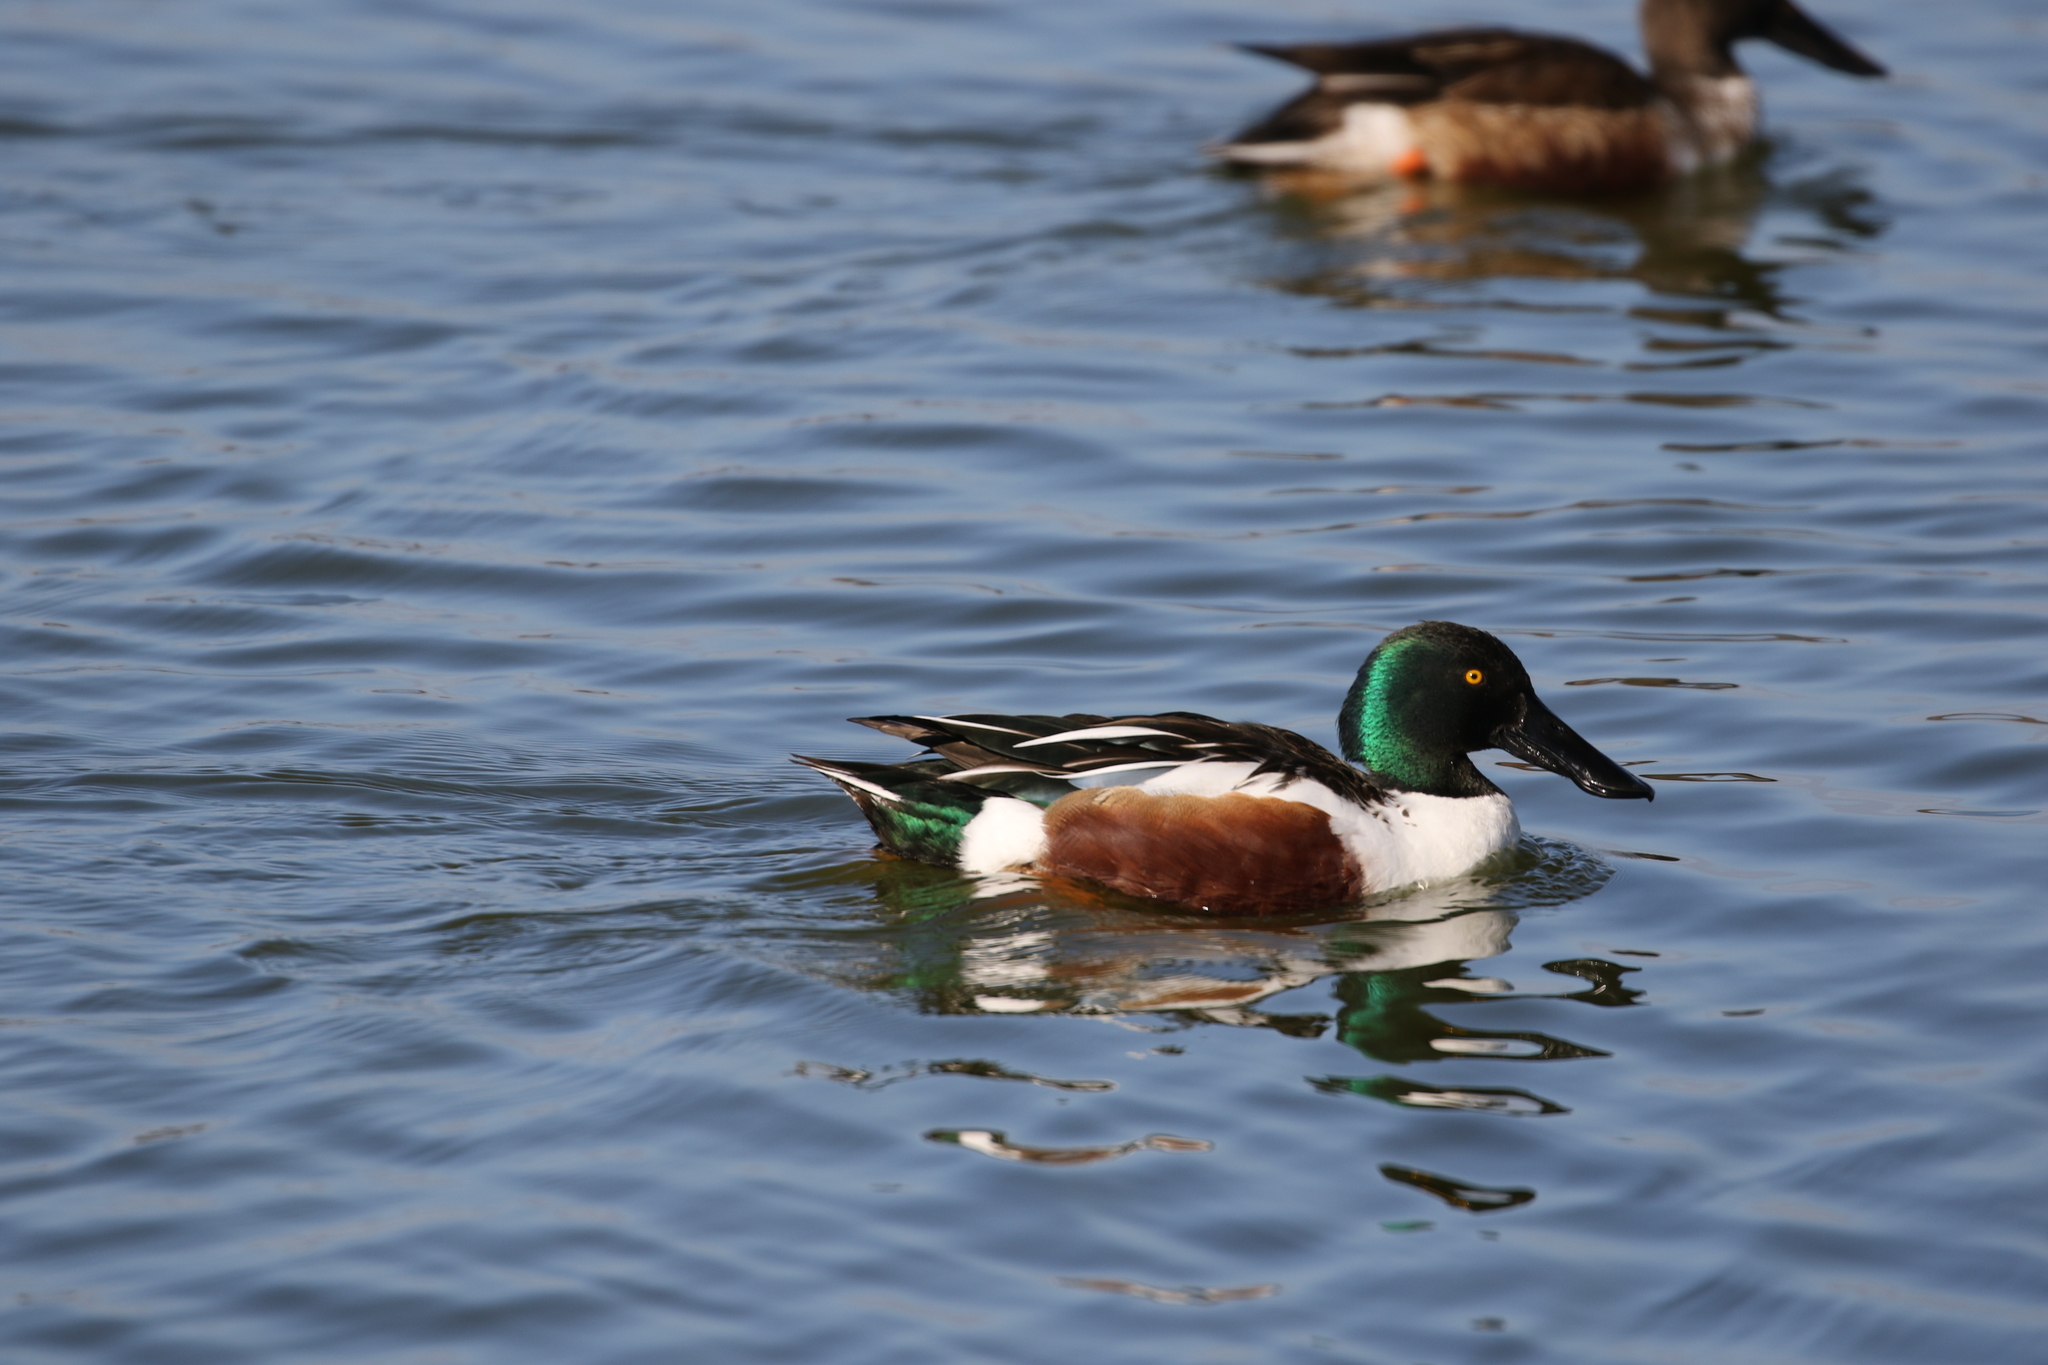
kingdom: Animalia
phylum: Chordata
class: Aves
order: Anseriformes
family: Anatidae
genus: Spatula
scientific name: Spatula clypeata
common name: Northern shoveler
